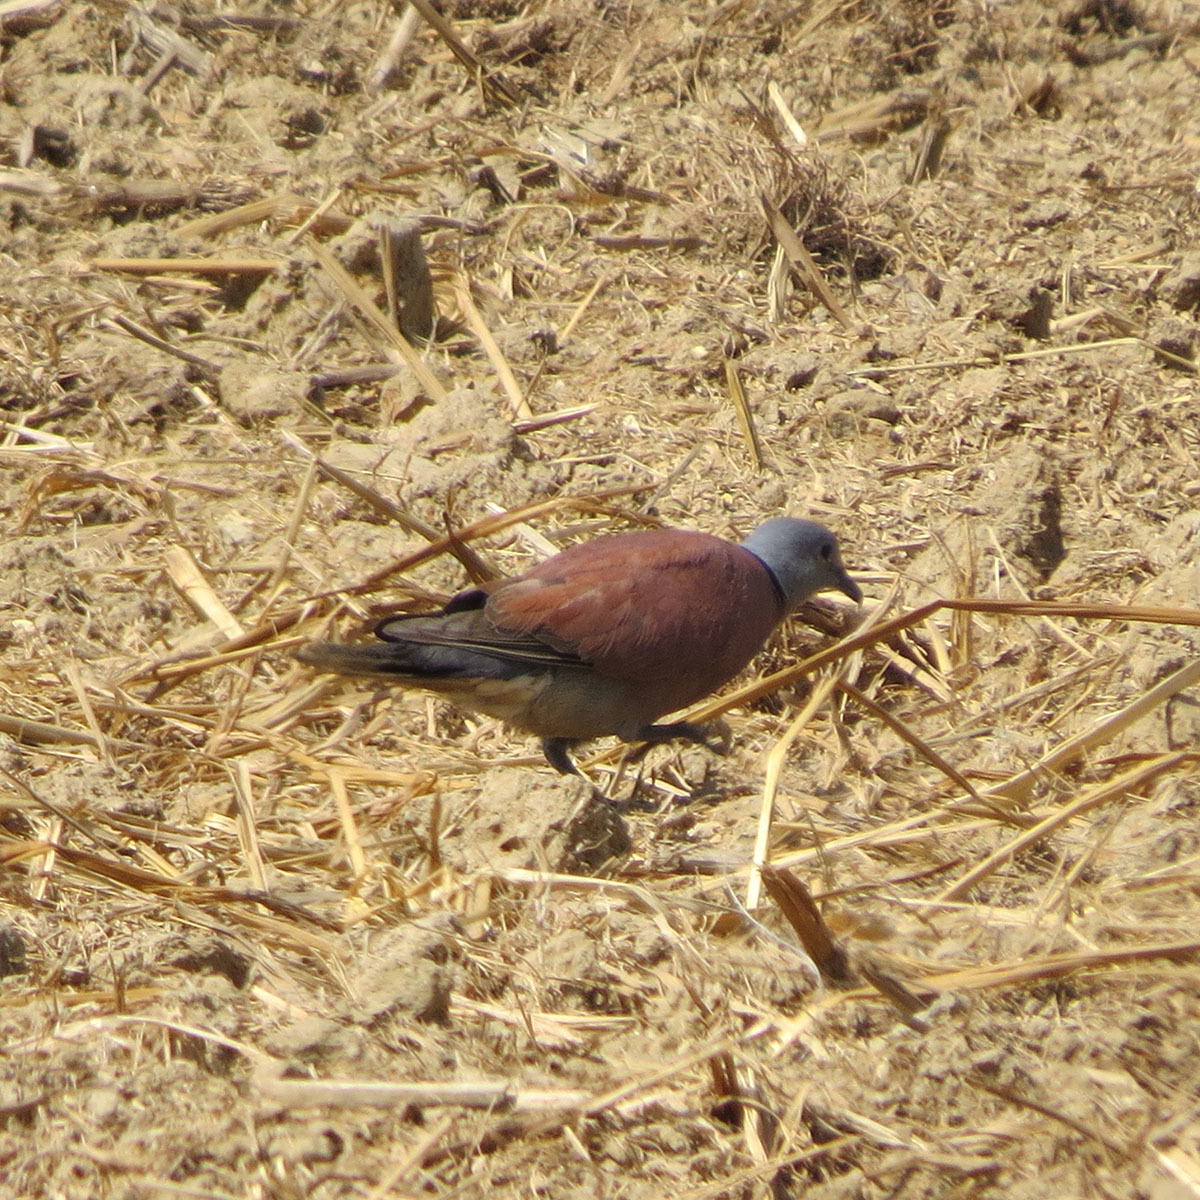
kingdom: Animalia
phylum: Chordata
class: Aves
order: Columbiformes
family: Columbidae
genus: Streptopelia
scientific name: Streptopelia tranquebarica
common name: Red turtle dove
